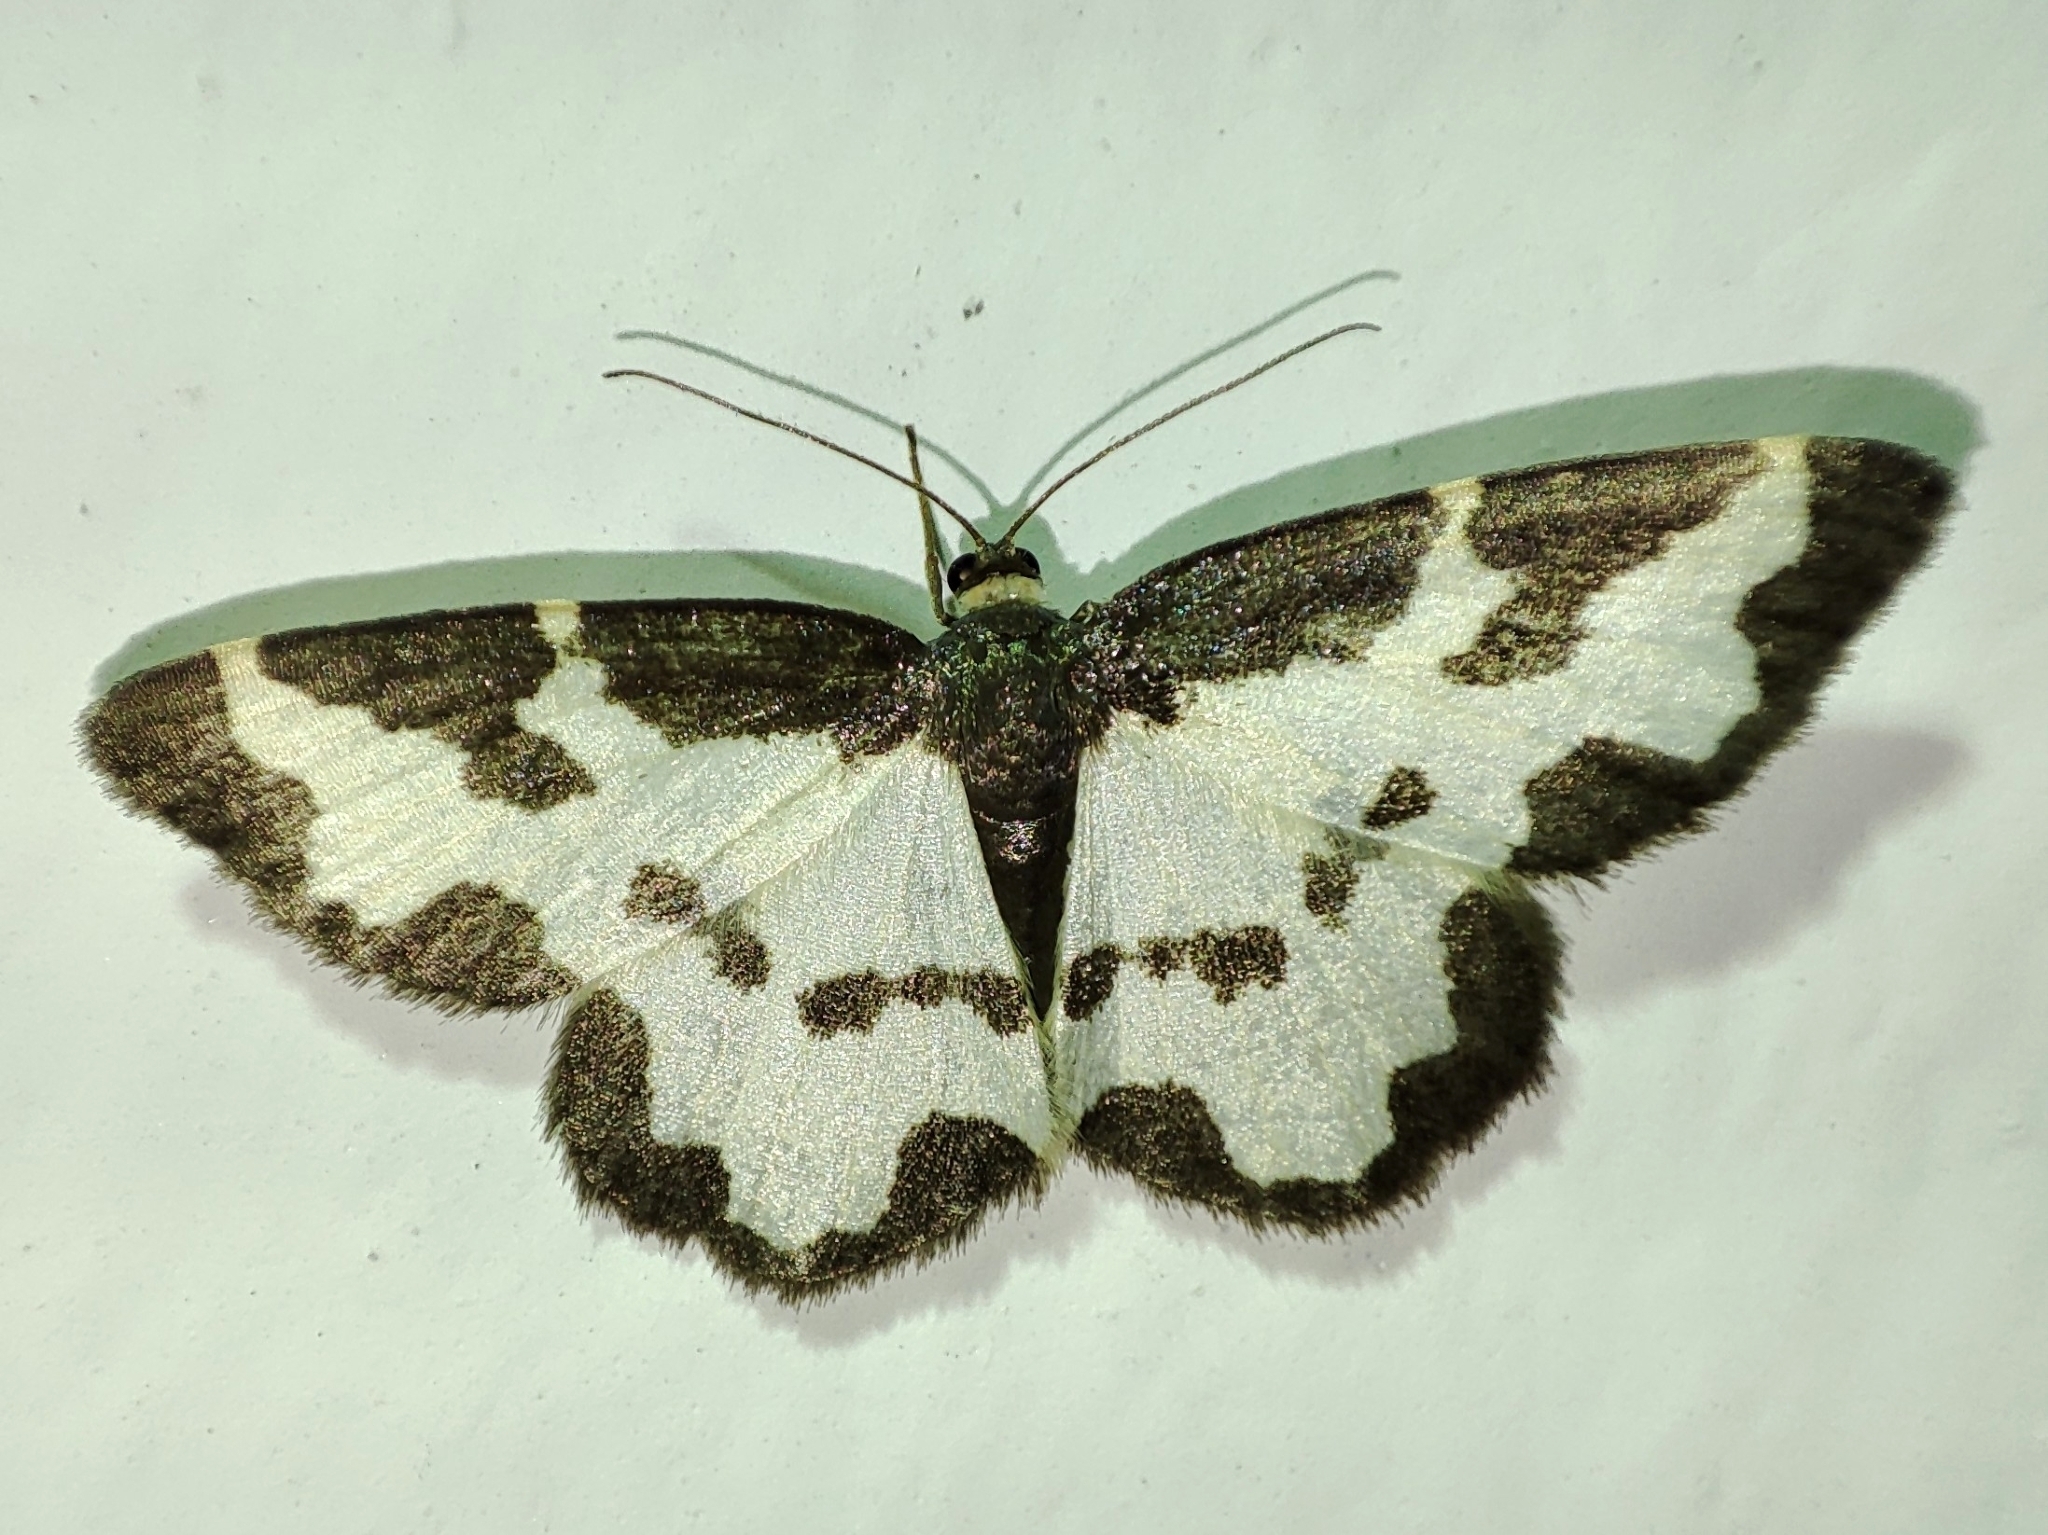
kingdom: Animalia
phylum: Arthropoda
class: Insecta
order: Lepidoptera
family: Geometridae
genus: Lomaspilis
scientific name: Lomaspilis marginata
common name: Clouded border
